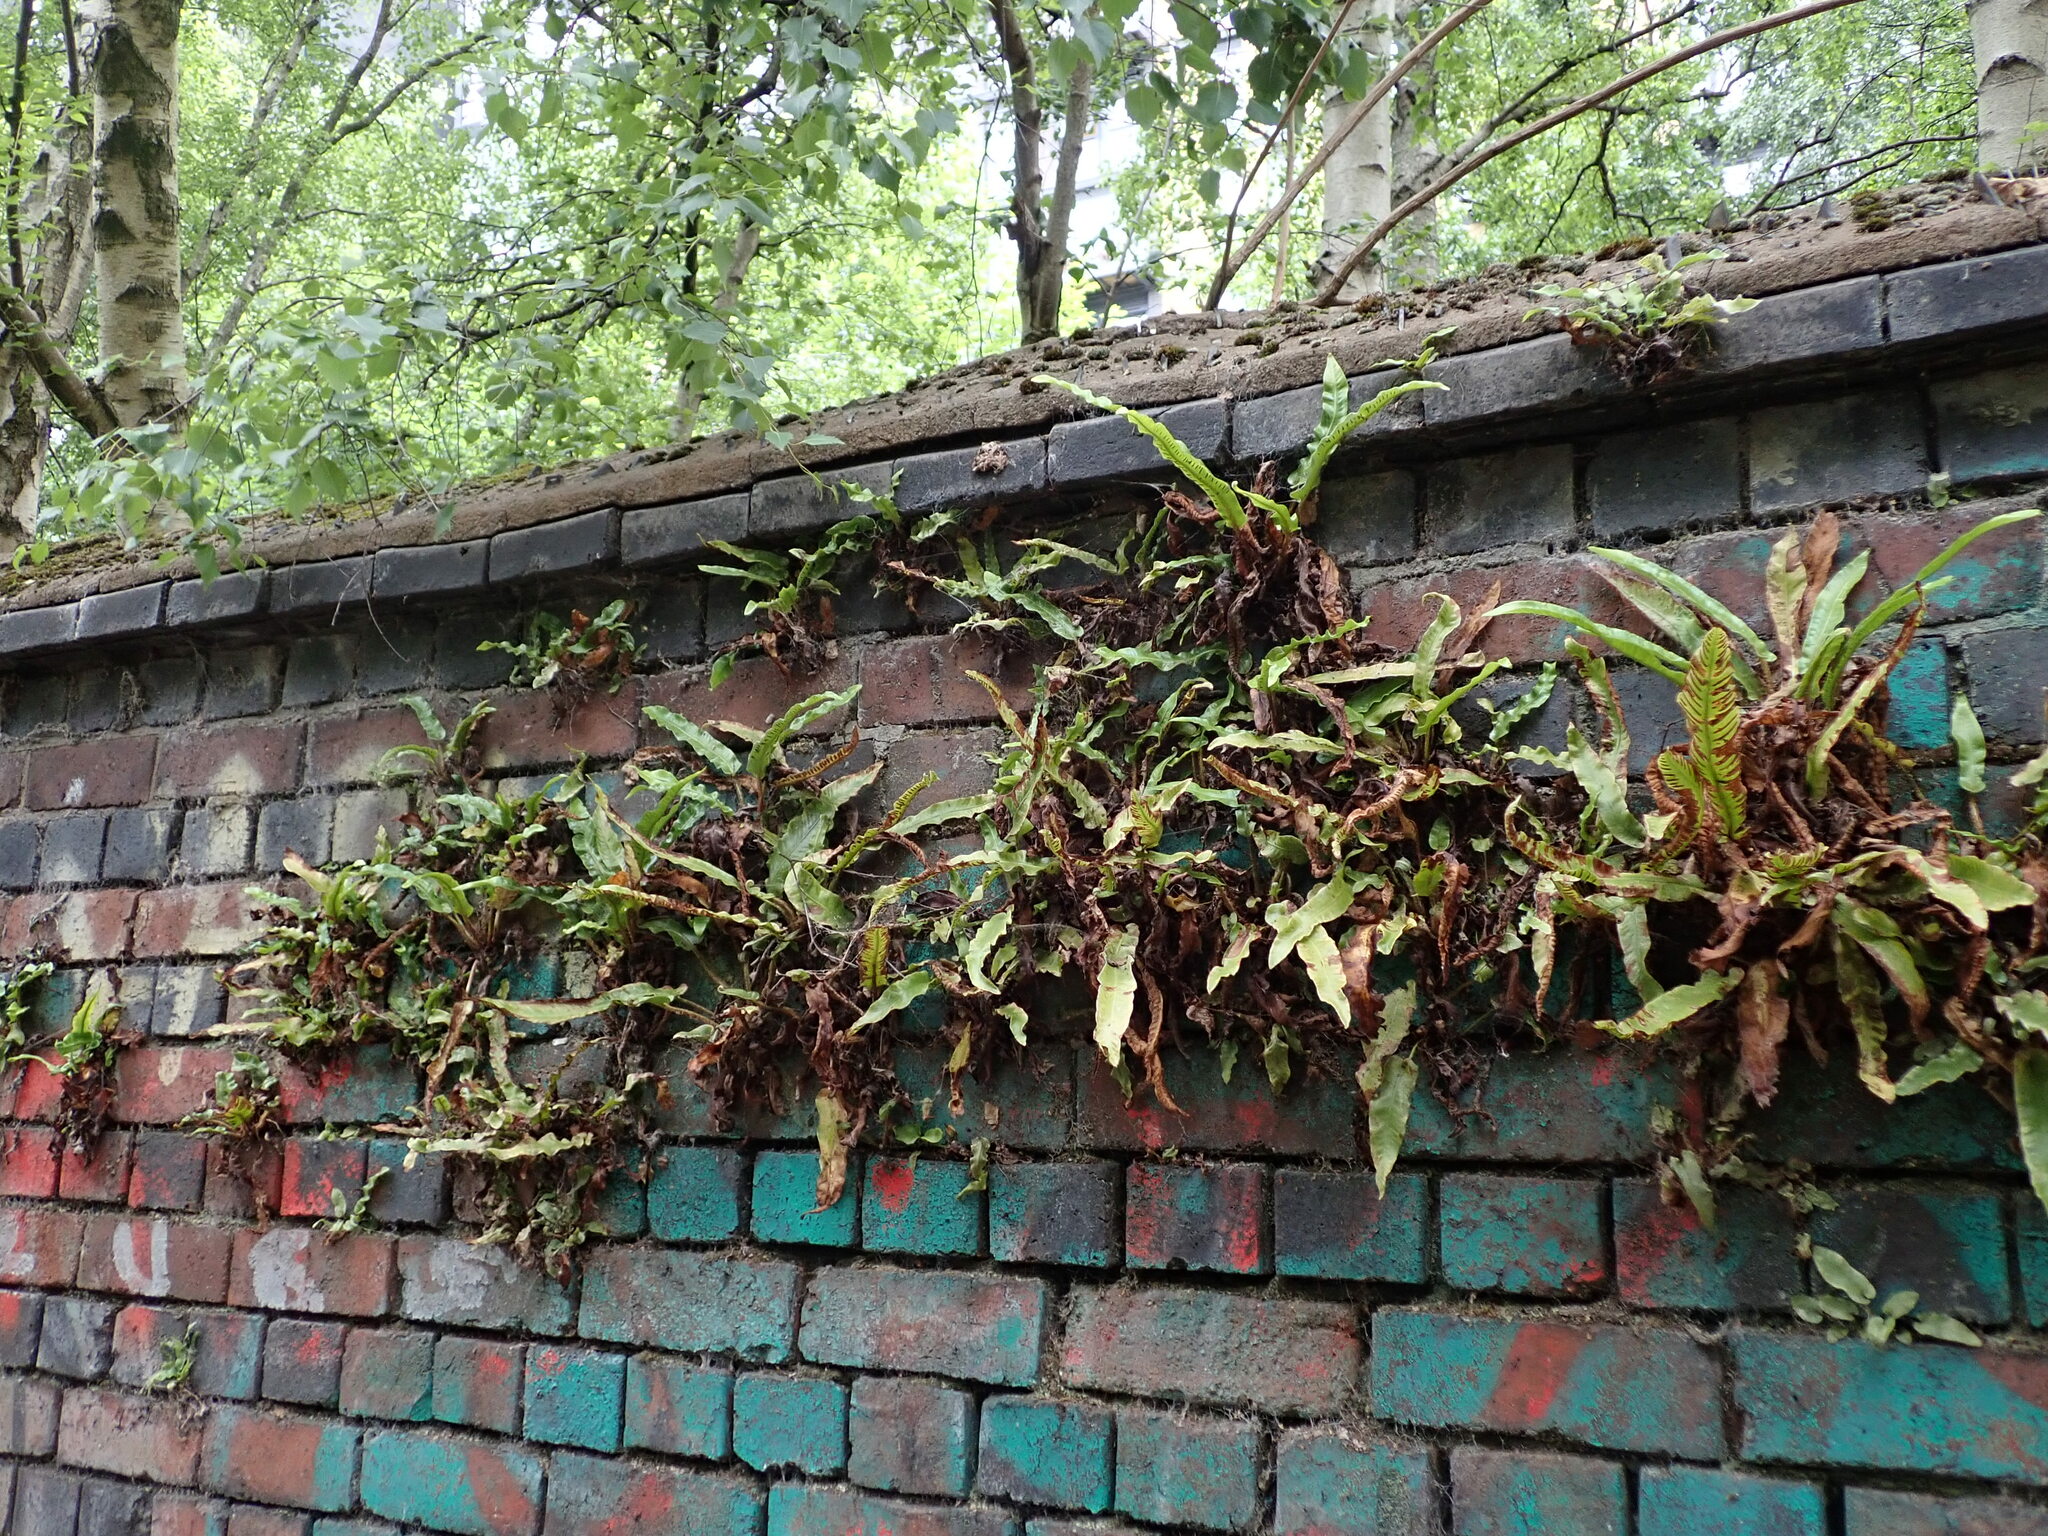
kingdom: Plantae
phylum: Tracheophyta
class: Polypodiopsida
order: Polypodiales
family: Aspleniaceae
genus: Asplenium
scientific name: Asplenium scolopendrium
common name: Hart's-tongue fern
